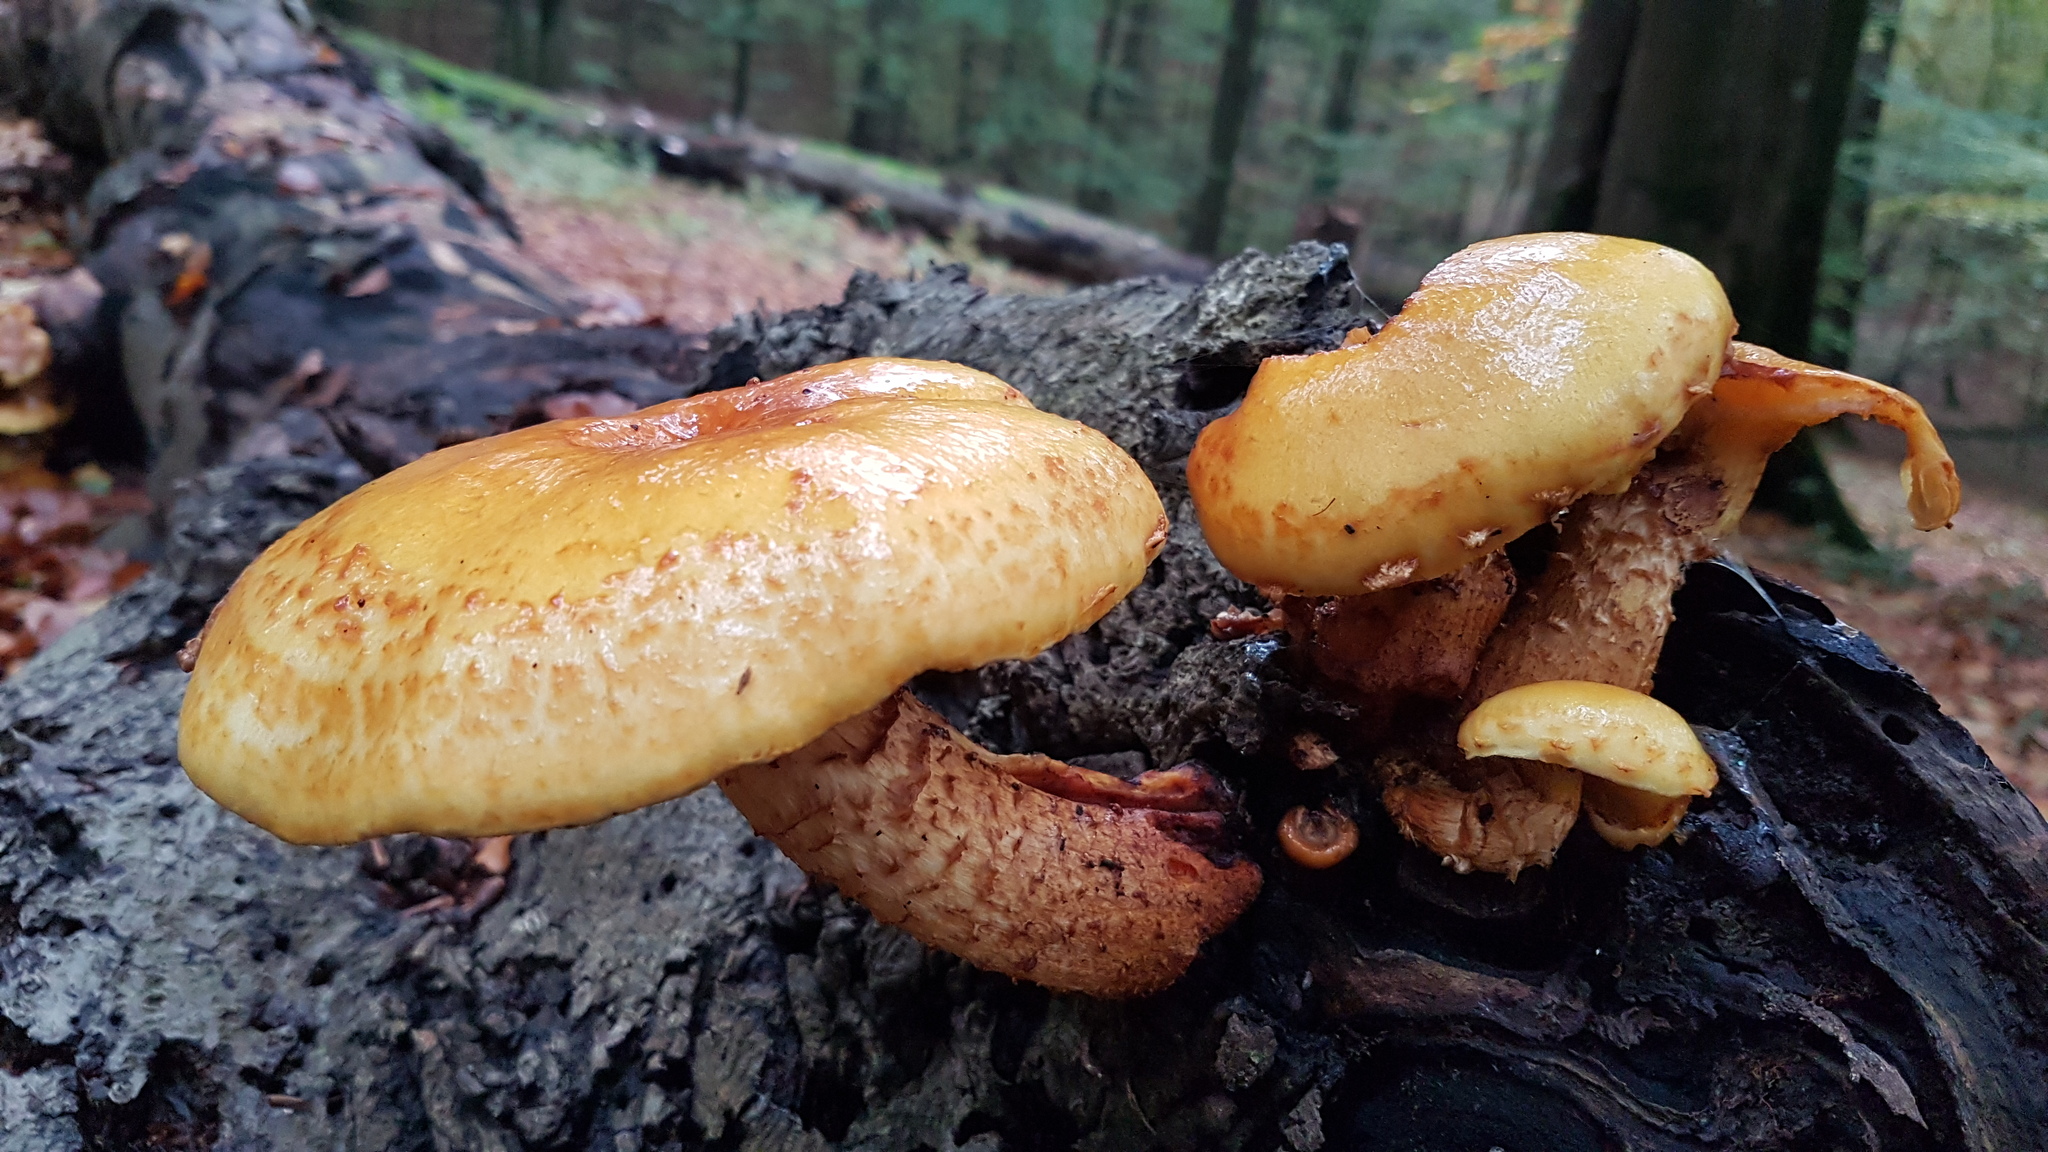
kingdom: Fungi
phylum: Basidiomycota
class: Agaricomycetes
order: Agaricales
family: Strophariaceae
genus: Pholiota
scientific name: Pholiota adiposa
